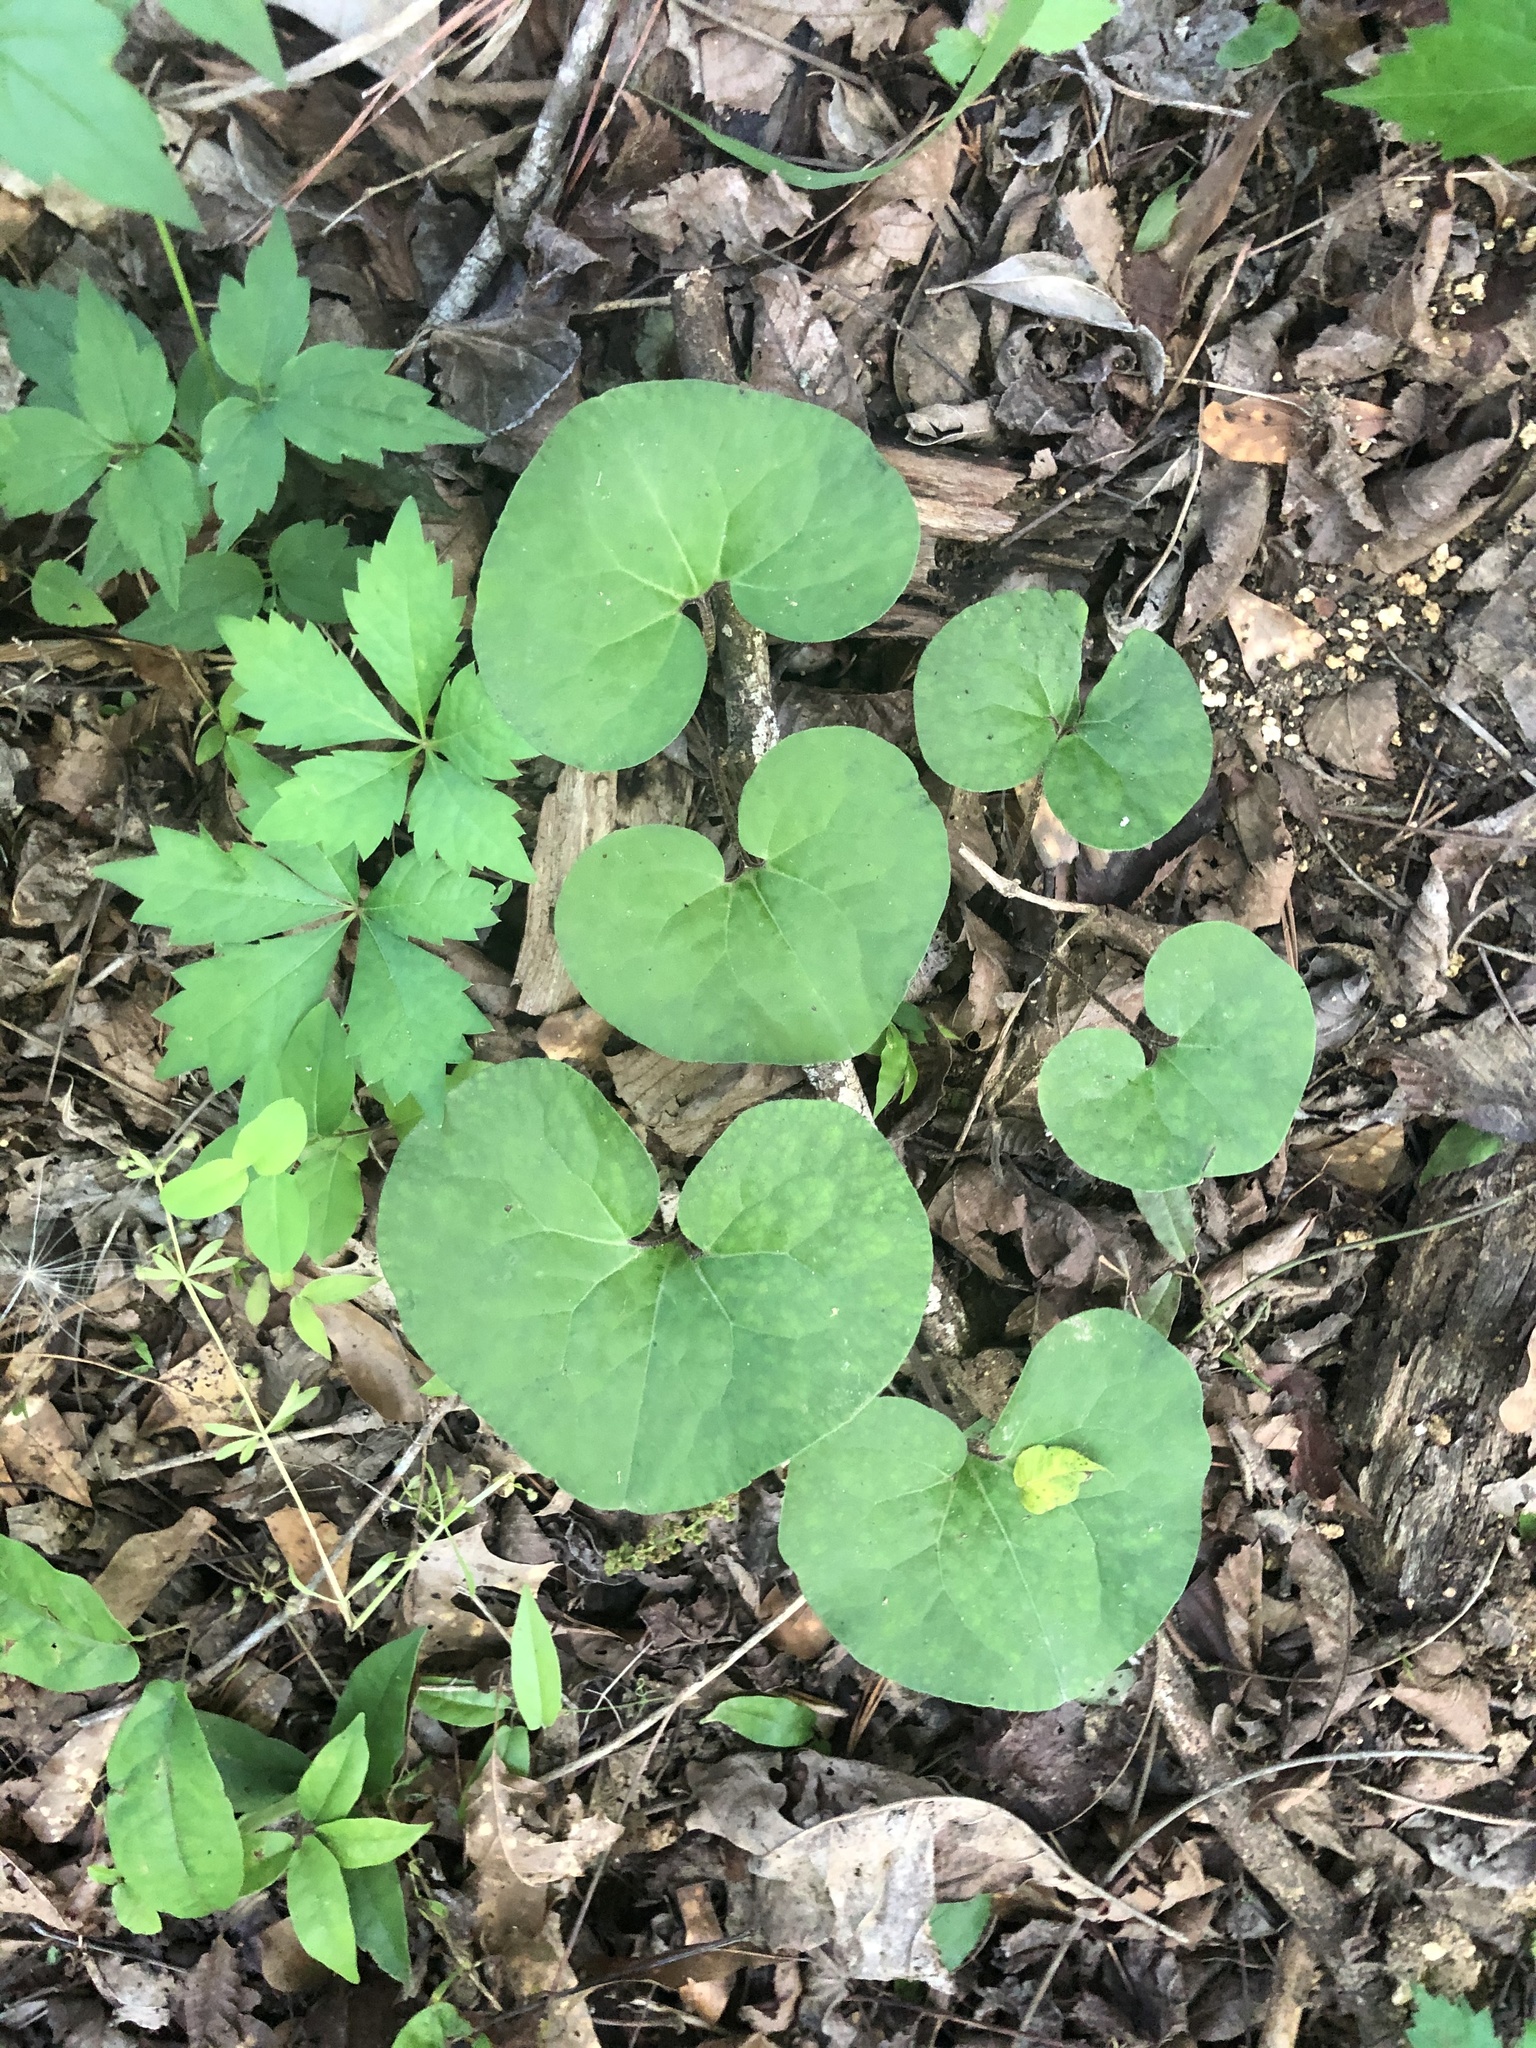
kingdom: Plantae
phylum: Tracheophyta
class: Magnoliopsida
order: Piperales
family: Aristolochiaceae
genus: Asarum
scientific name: Asarum canadense
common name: Wild ginger
